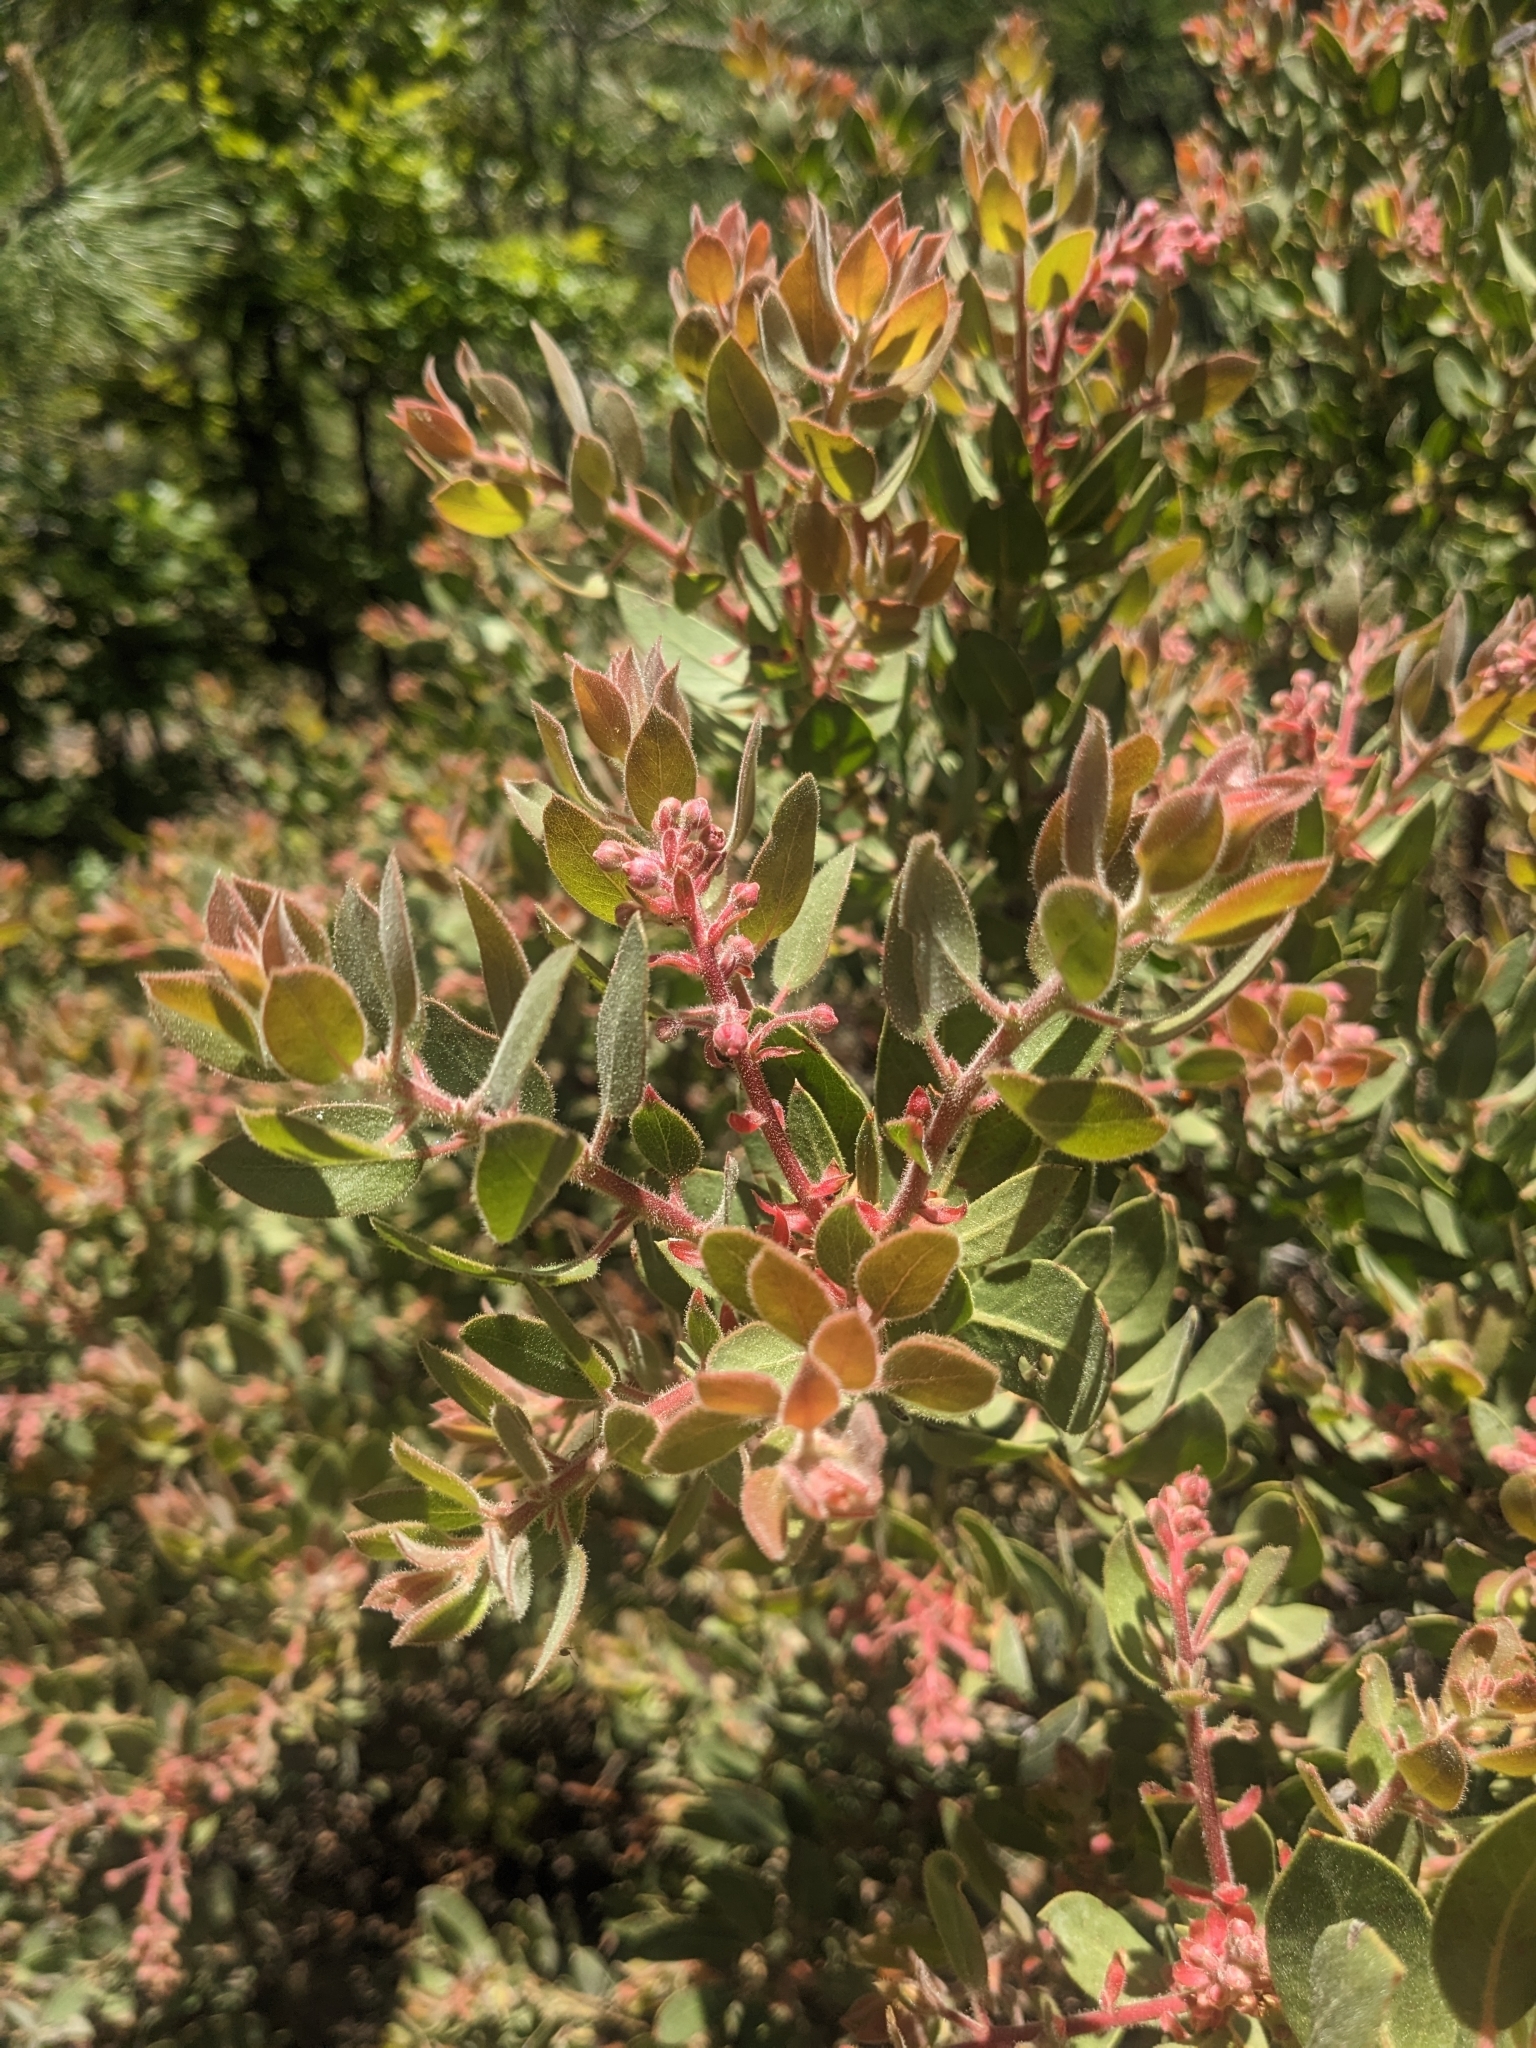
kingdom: Plantae
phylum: Tracheophyta
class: Magnoliopsida
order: Ericales
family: Ericaceae
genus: Arctostaphylos
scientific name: Arctostaphylos pringlei
